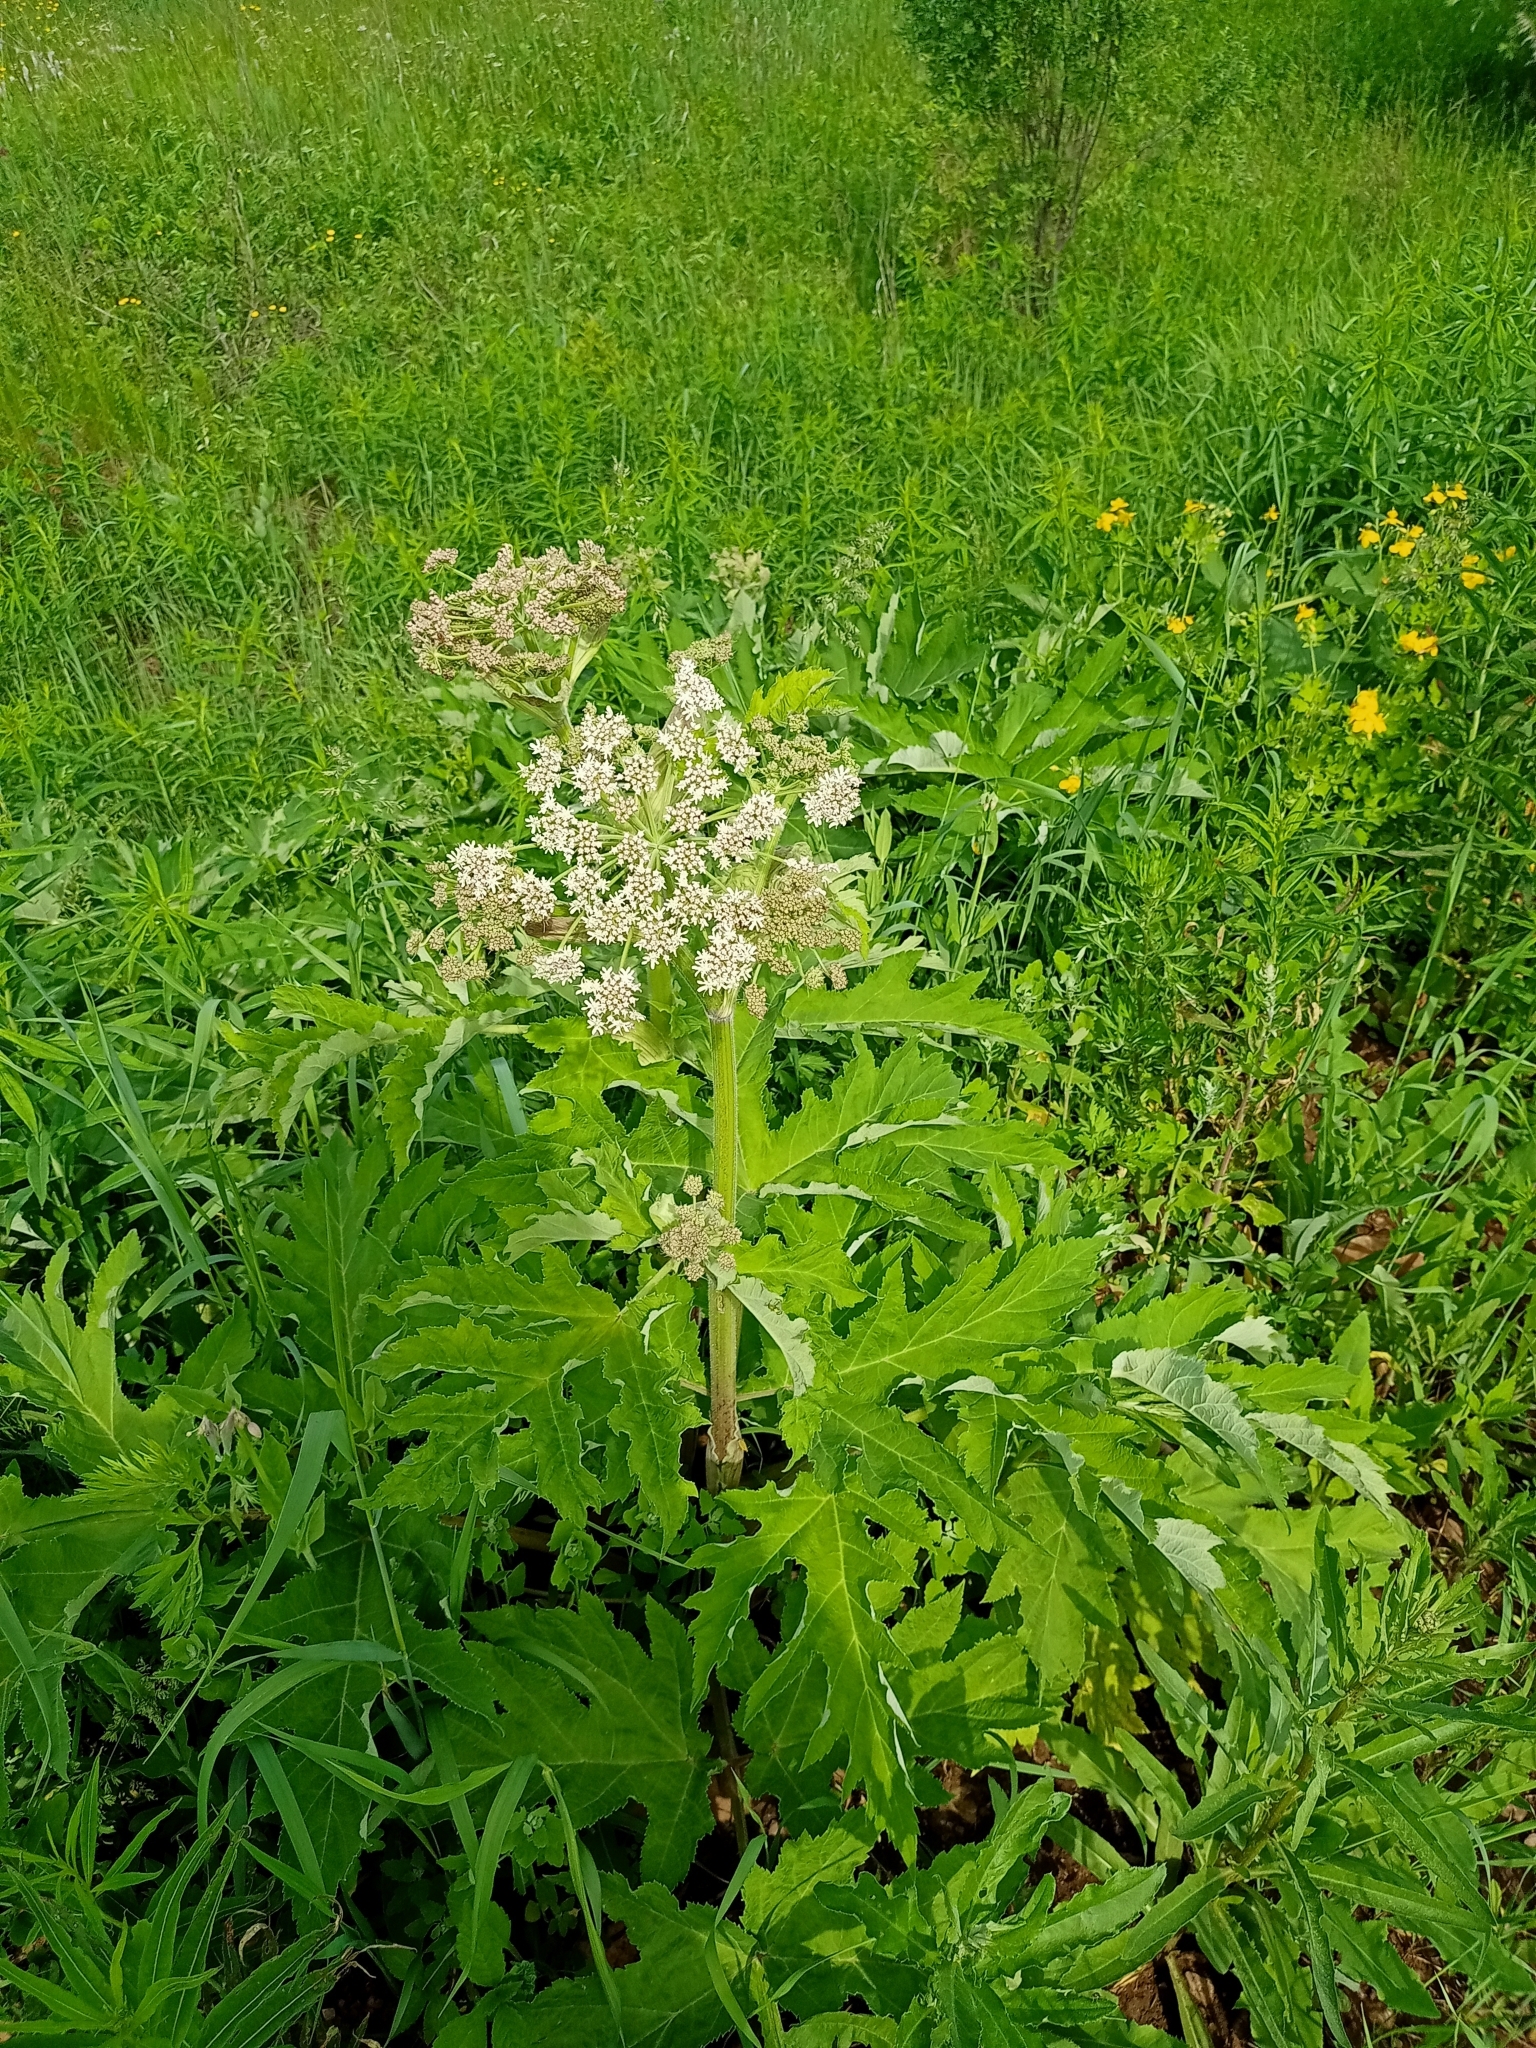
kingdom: Plantae
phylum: Tracheophyta
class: Magnoliopsida
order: Apiales
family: Apiaceae
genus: Heracleum
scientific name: Heracleum dissectum
